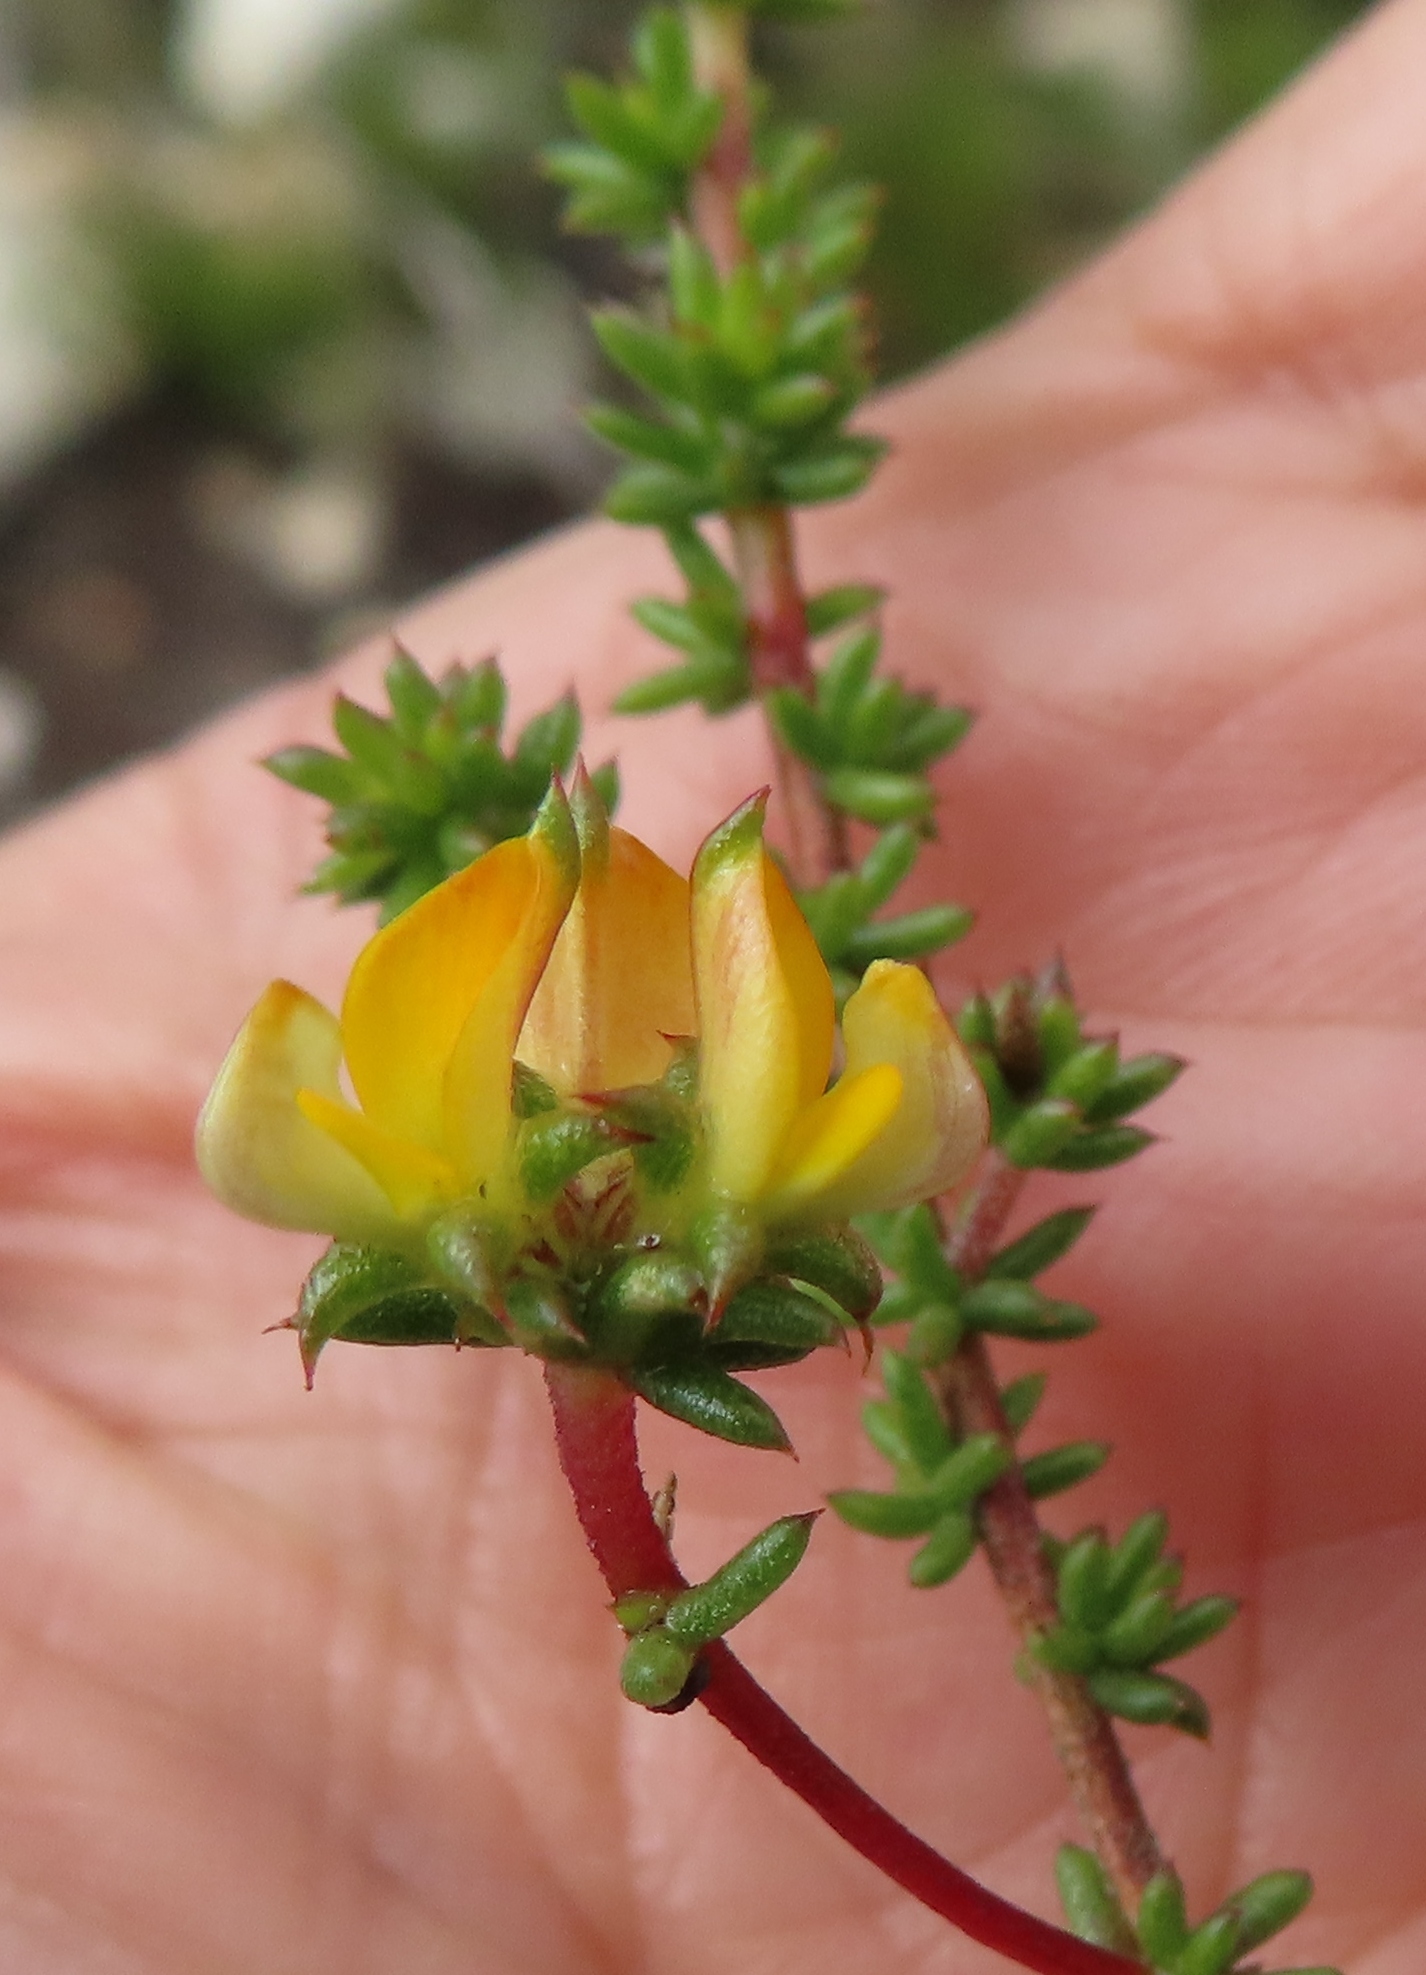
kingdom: Plantae
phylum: Tracheophyta
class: Magnoliopsida
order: Fabales
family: Fabaceae
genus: Aspalathus
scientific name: Aspalathus crassisepala
